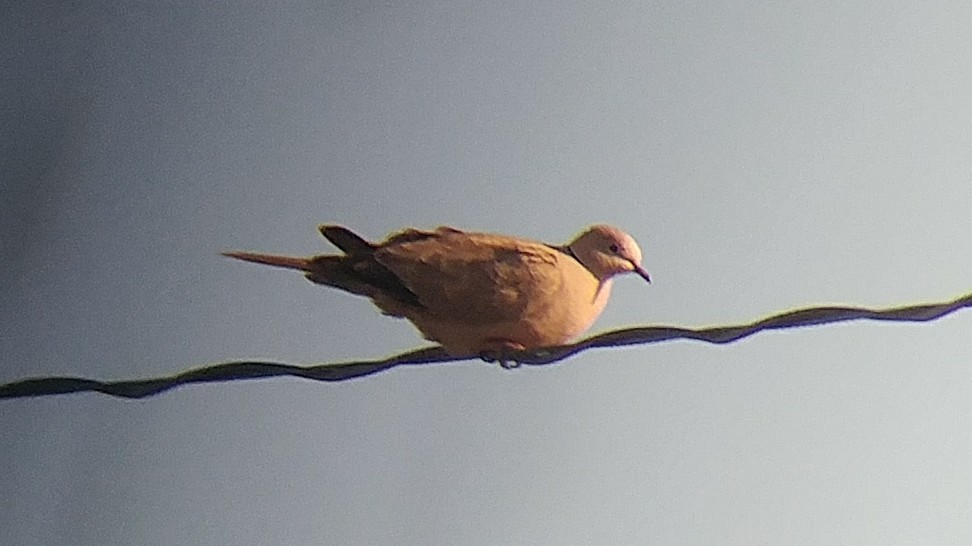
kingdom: Animalia
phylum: Chordata
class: Aves
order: Columbiformes
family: Columbidae
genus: Streptopelia
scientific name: Streptopelia decaocto
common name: Eurasian collared dove
